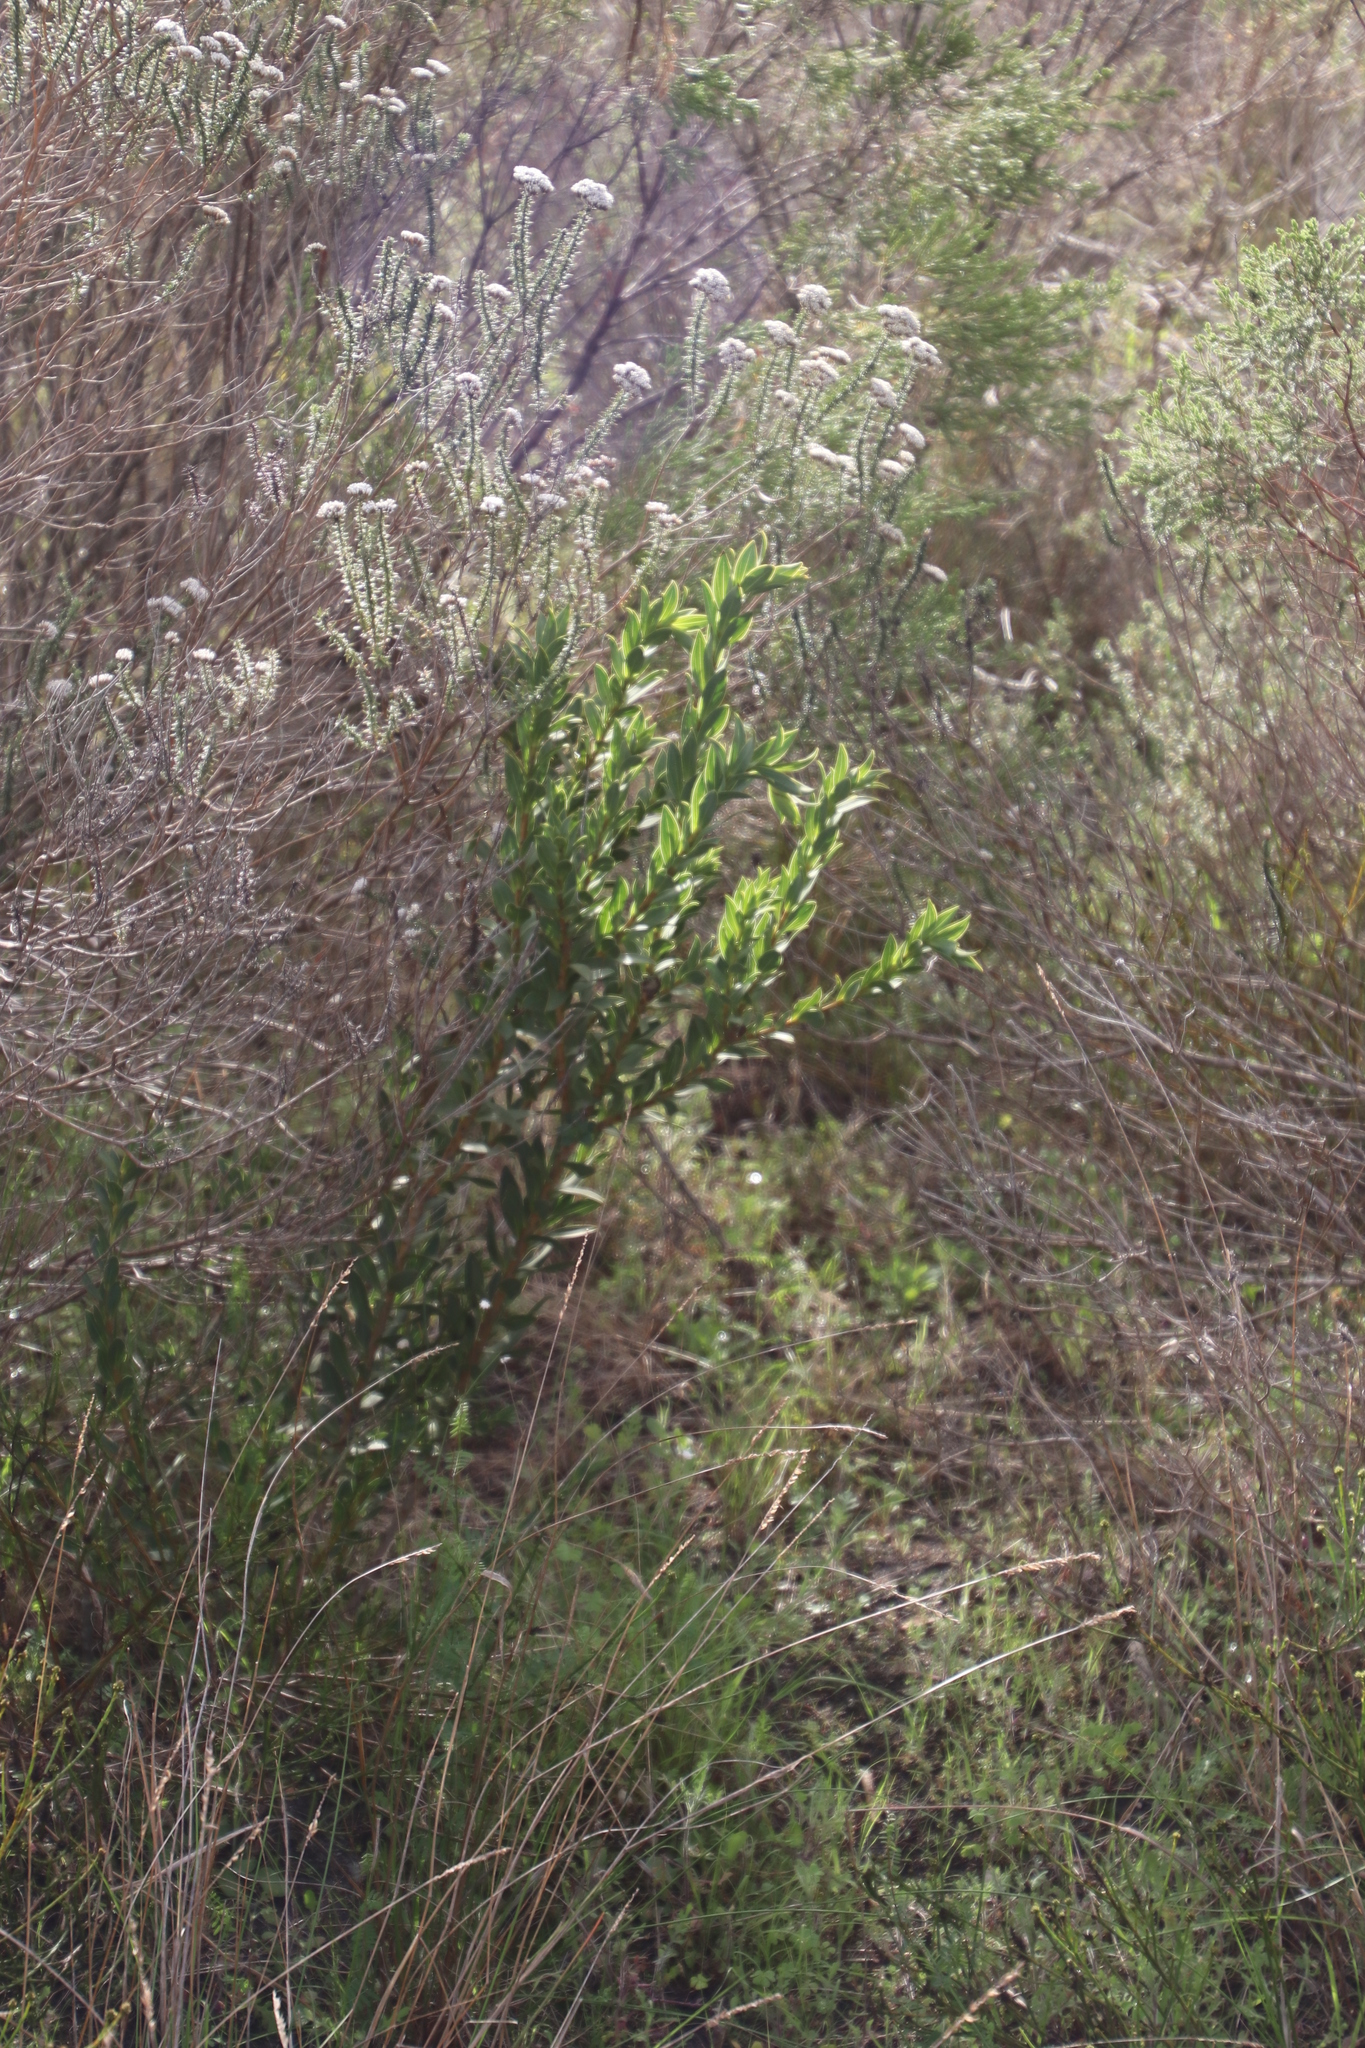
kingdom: Plantae
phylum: Tracheophyta
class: Magnoliopsida
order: Fabales
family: Fabaceae
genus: Liparia
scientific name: Liparia splendens
